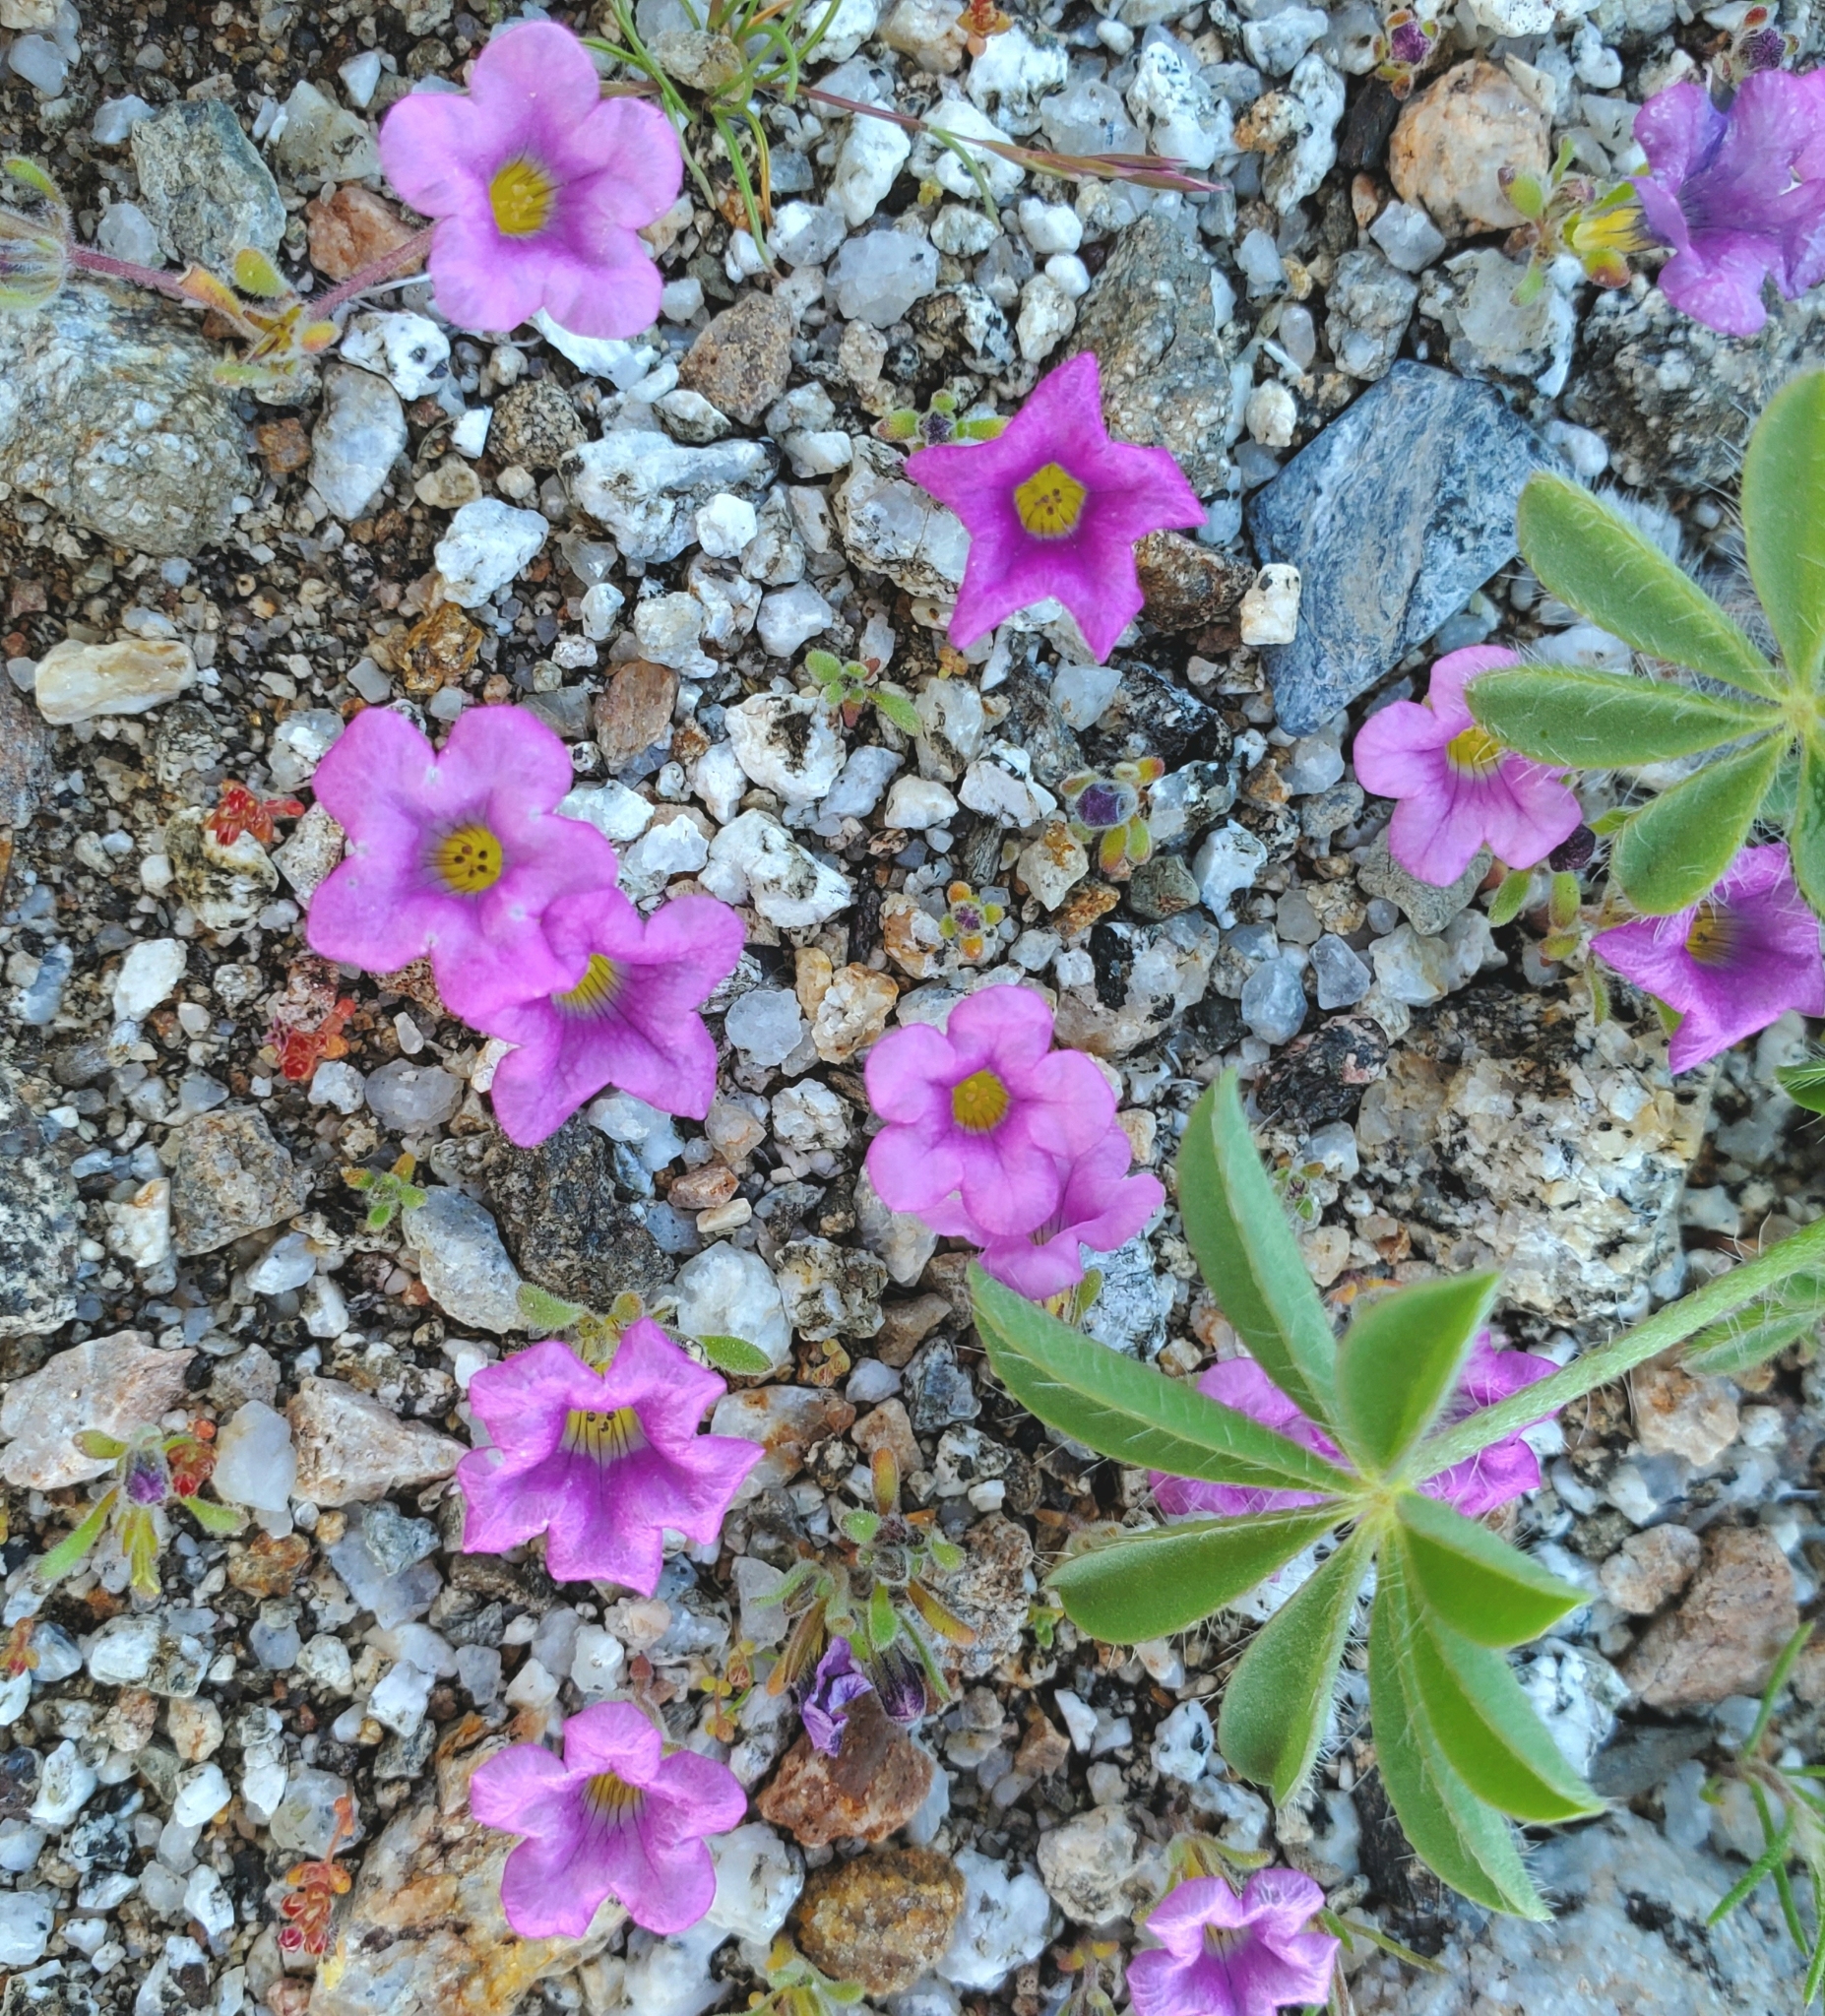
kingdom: Plantae
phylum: Tracheophyta
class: Magnoliopsida
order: Boraginales
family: Namaceae
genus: Nama
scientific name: Nama demissa
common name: Leafy nama
